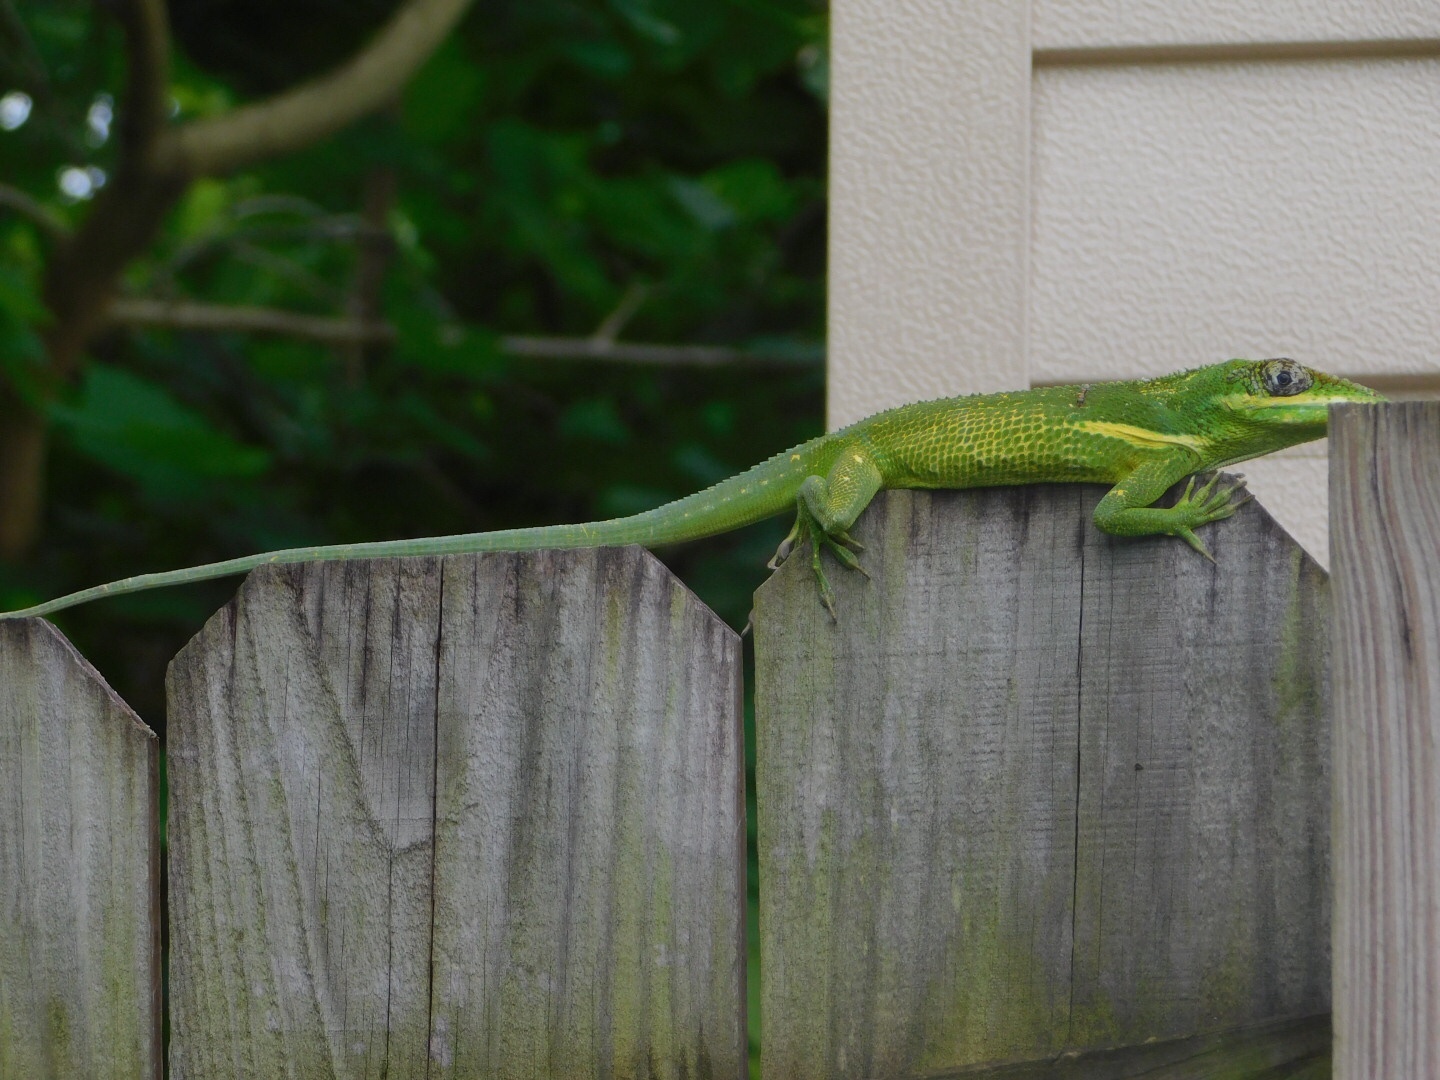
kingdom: Animalia
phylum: Chordata
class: Squamata
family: Dactyloidae
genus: Anolis
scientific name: Anolis equestris
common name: Knight anole
